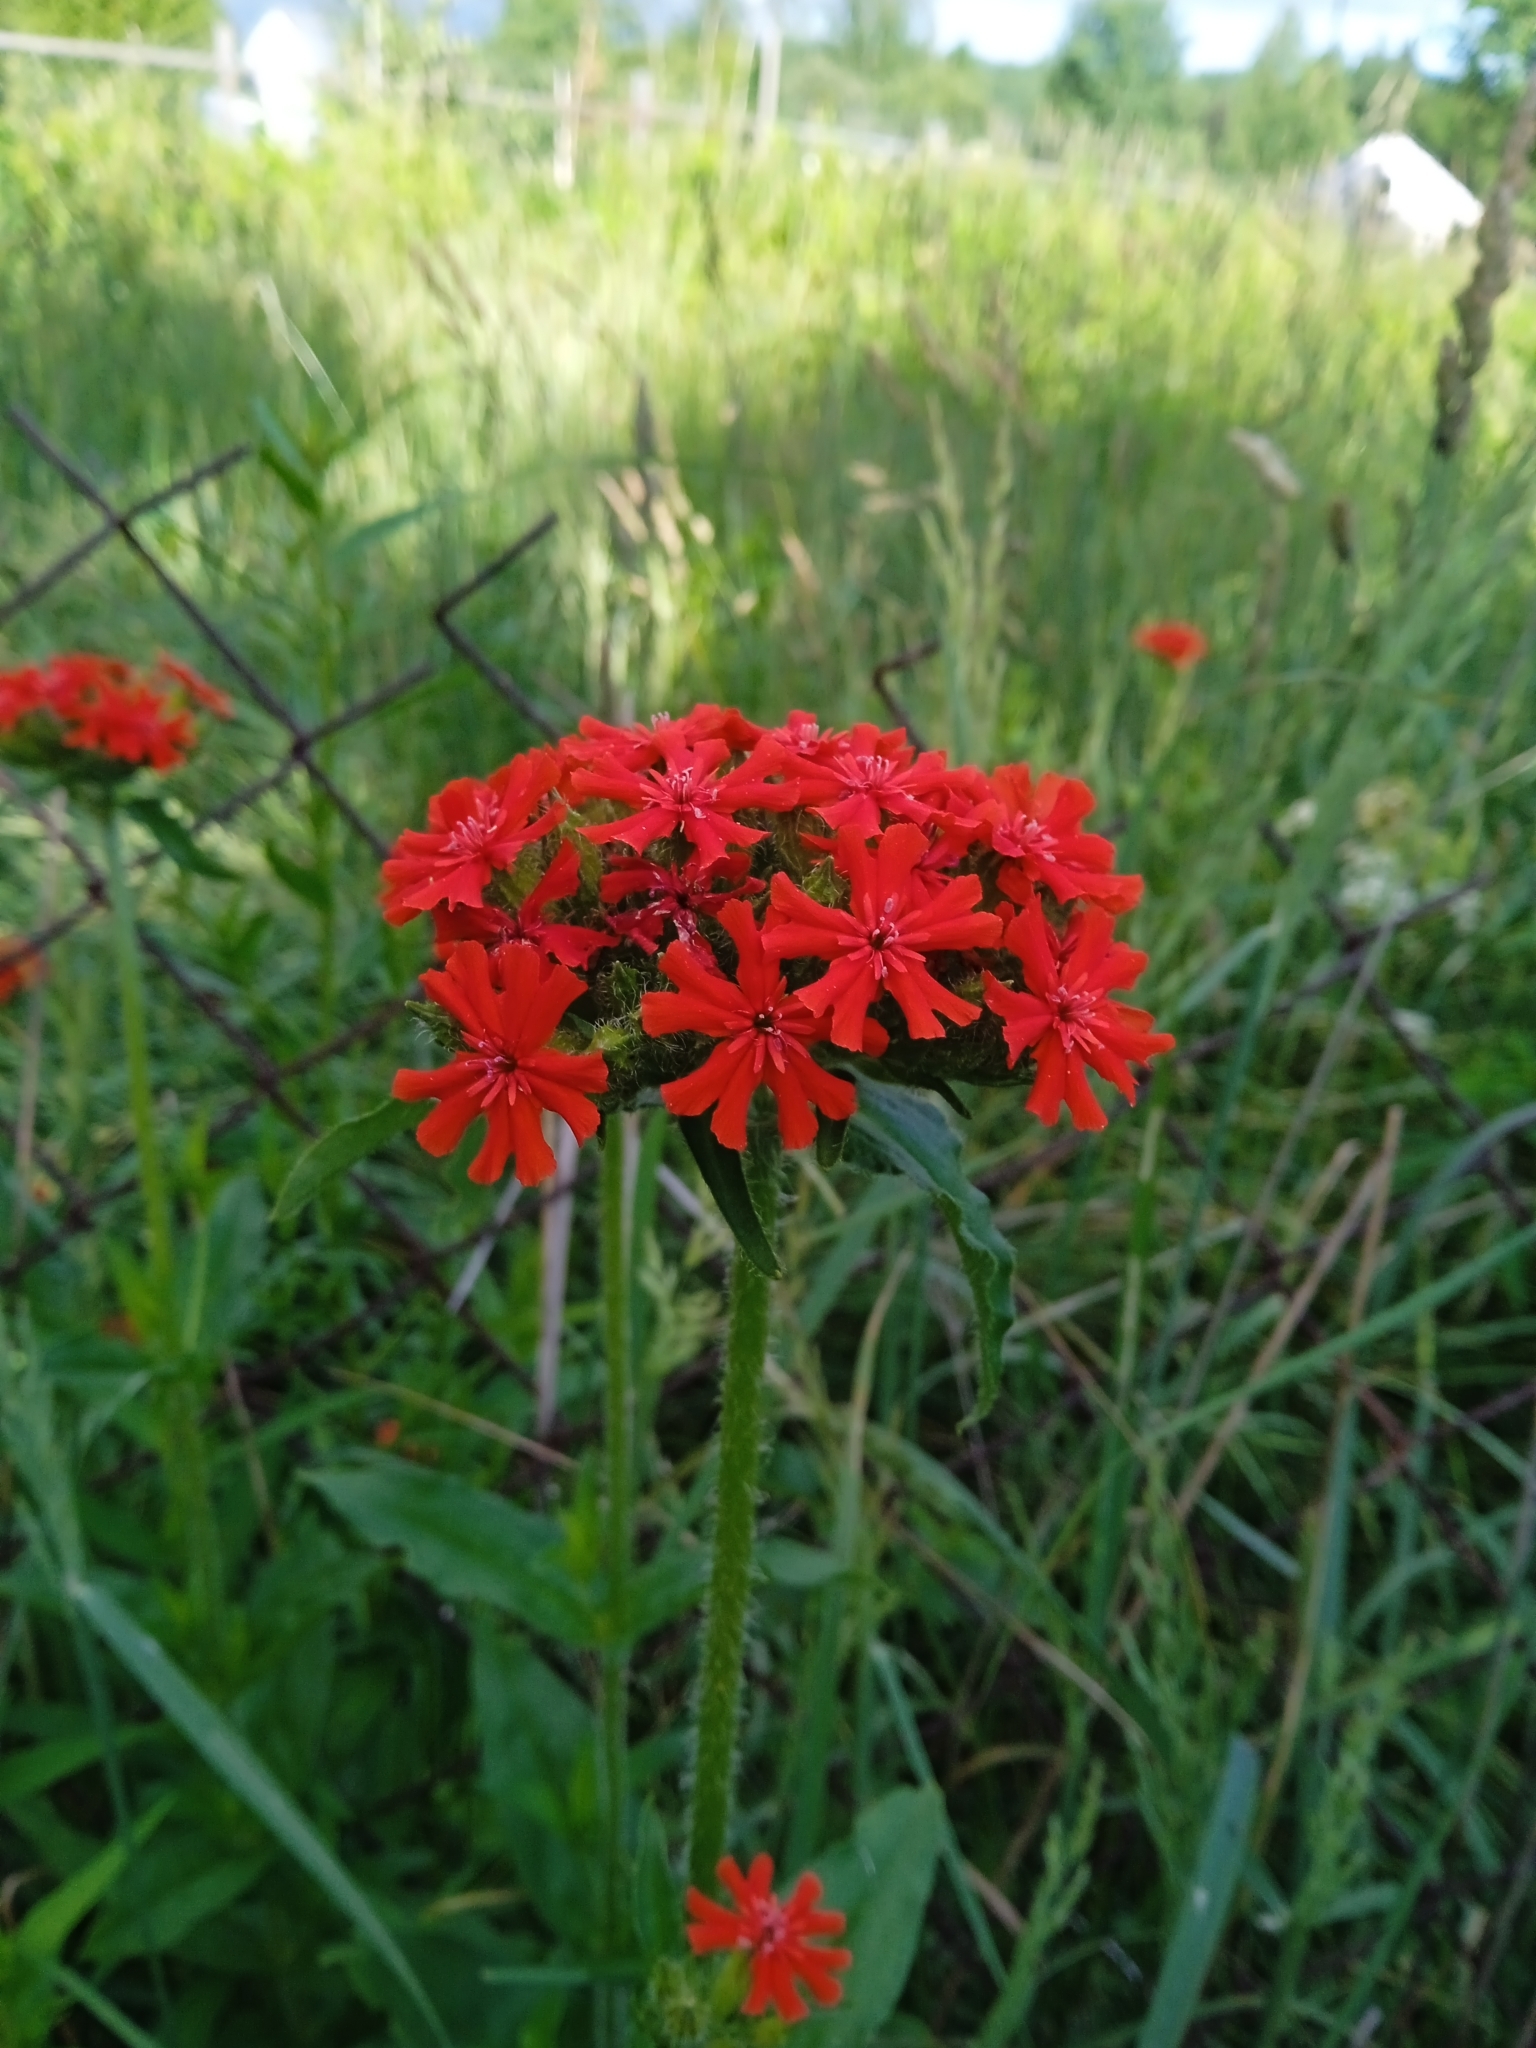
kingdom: Plantae
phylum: Tracheophyta
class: Magnoliopsida
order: Caryophyllales
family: Caryophyllaceae
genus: Silene
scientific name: Silene chalcedonica
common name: Maltese-cross
